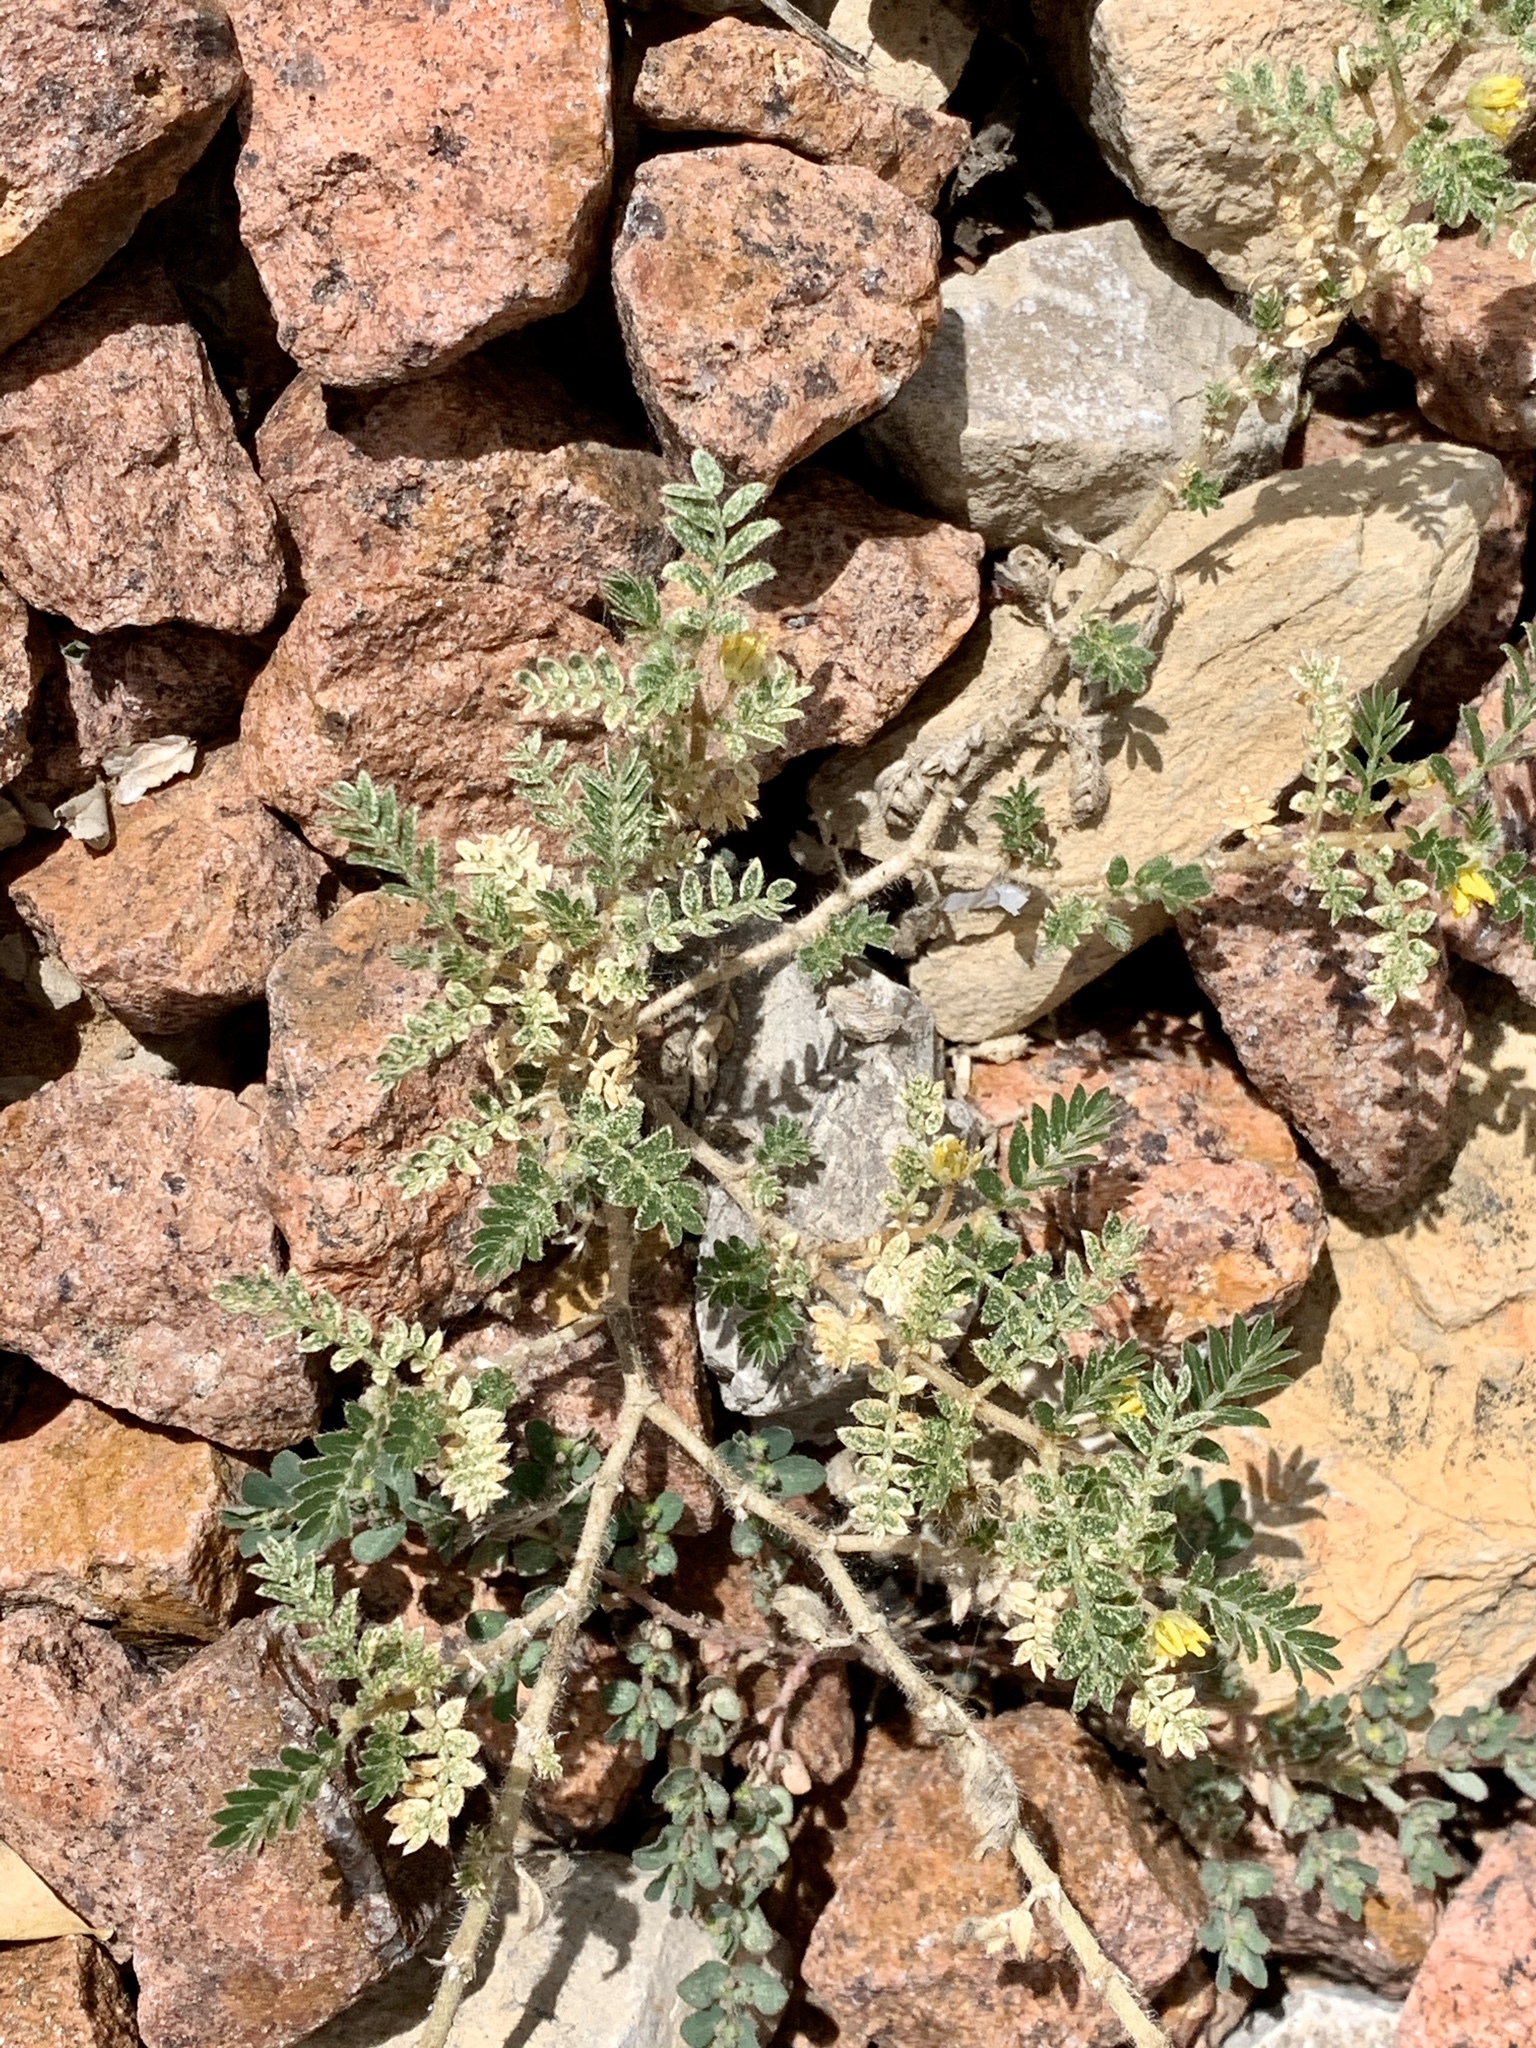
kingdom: Plantae
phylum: Tracheophyta
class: Magnoliopsida
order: Zygophyllales
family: Zygophyllaceae
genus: Tribulus
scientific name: Tribulus terrestris
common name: Puncturevine
